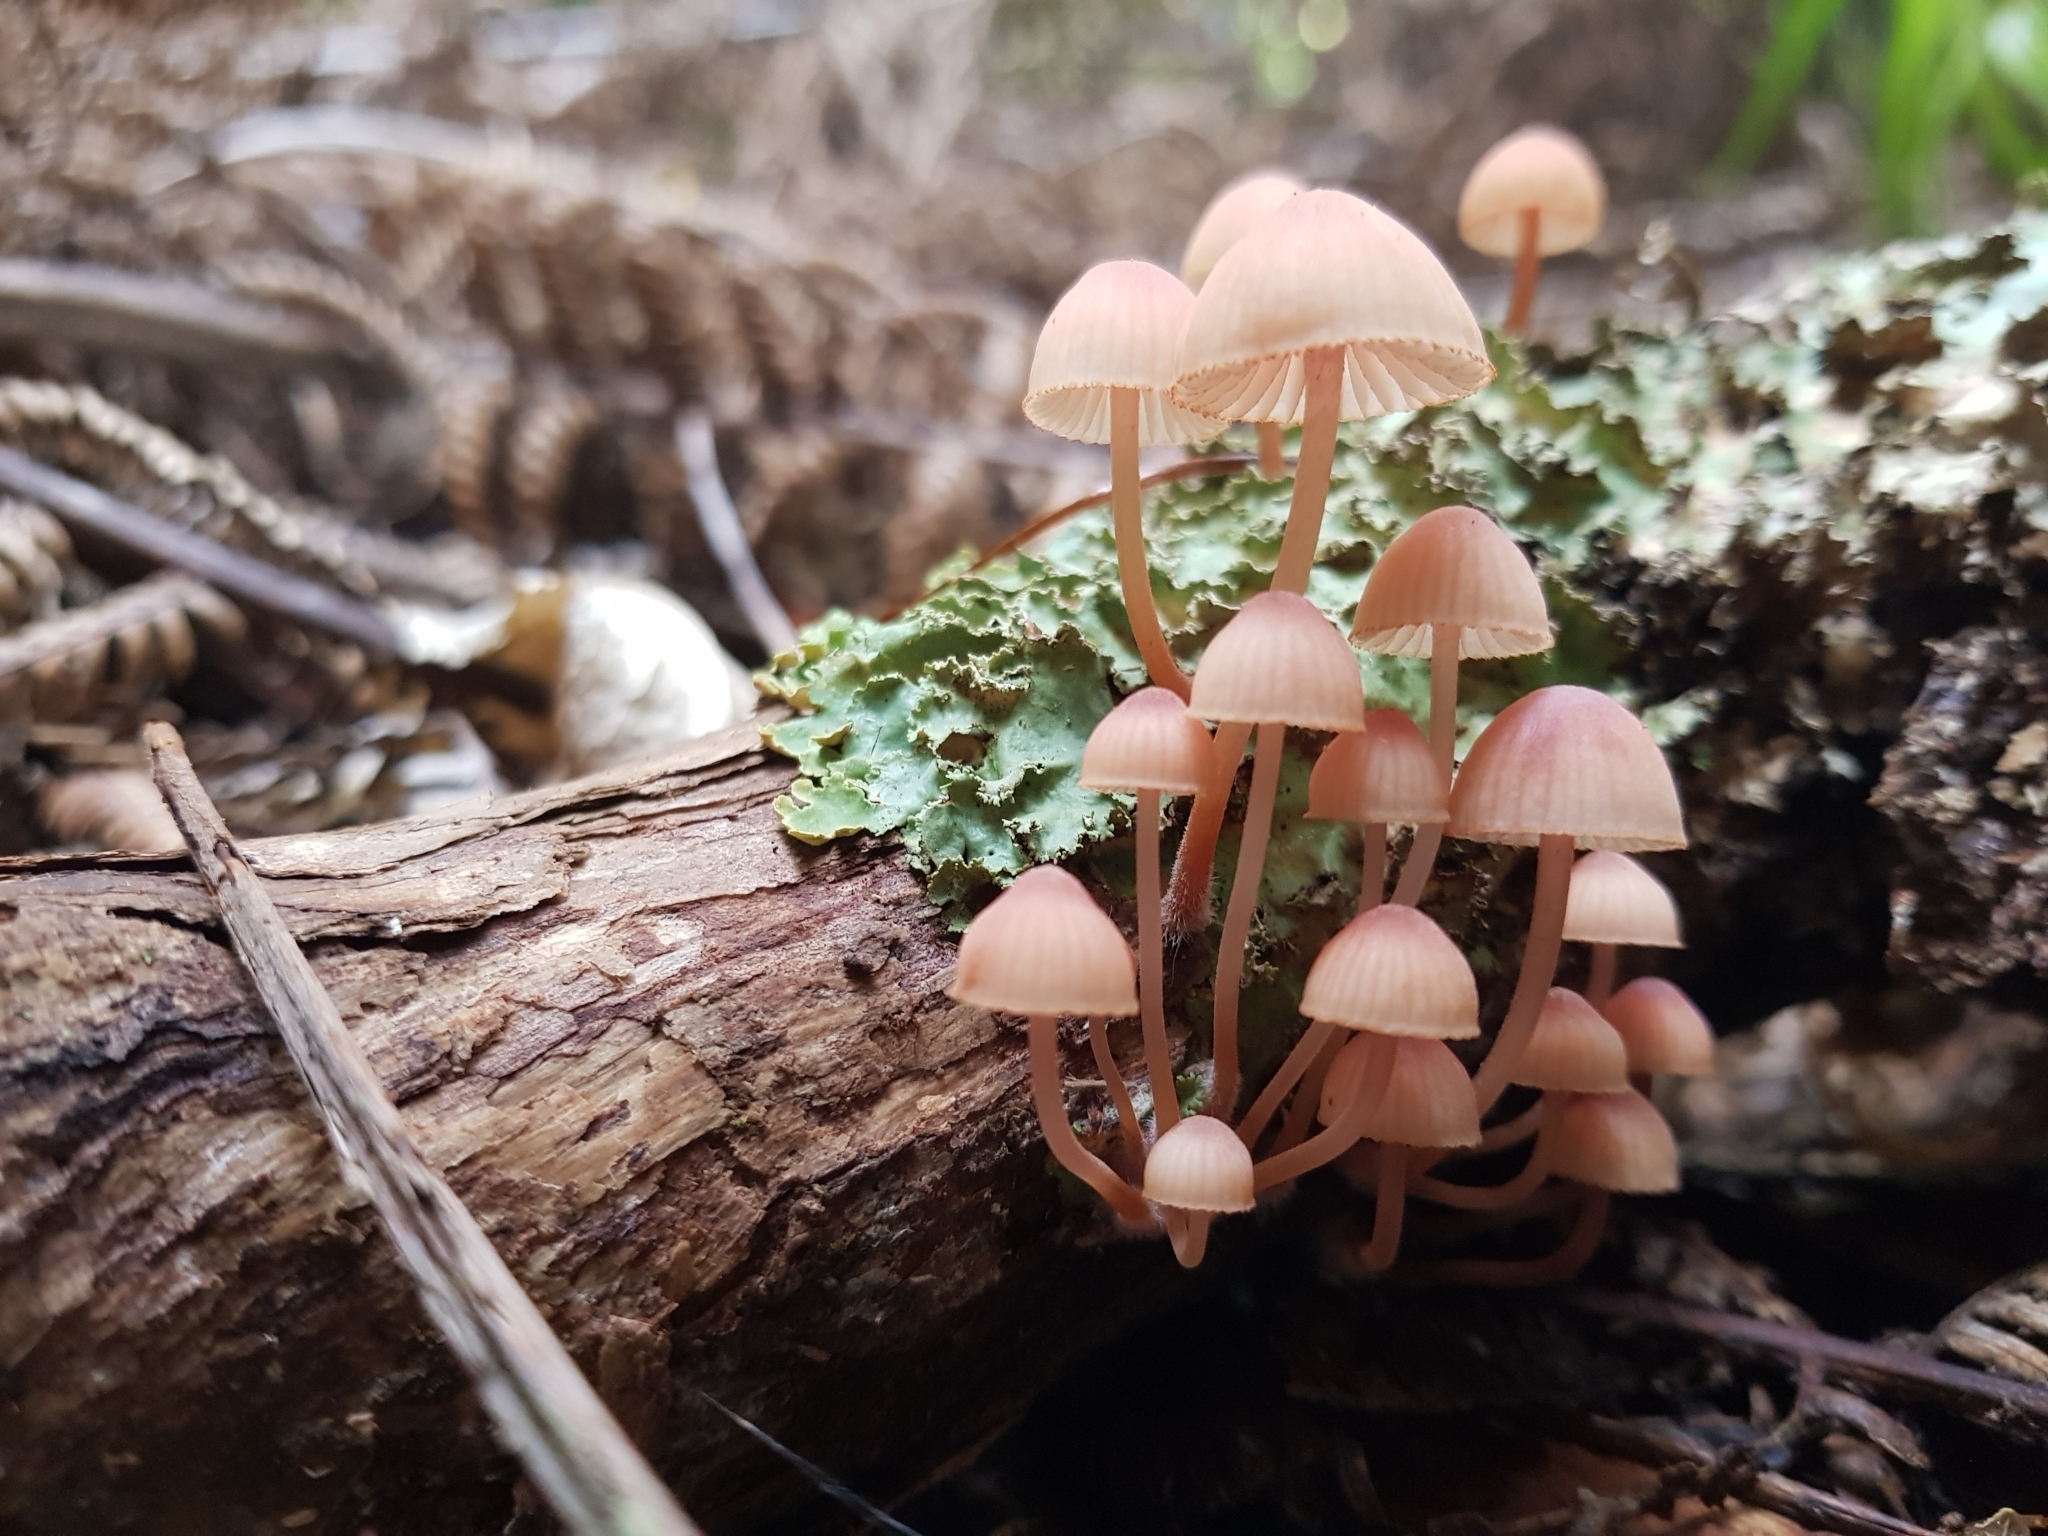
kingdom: Fungi
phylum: Basidiomycota
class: Agaricomycetes
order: Agaricales
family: Mycenaceae
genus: Mycena
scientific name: Mycena parsonsii
